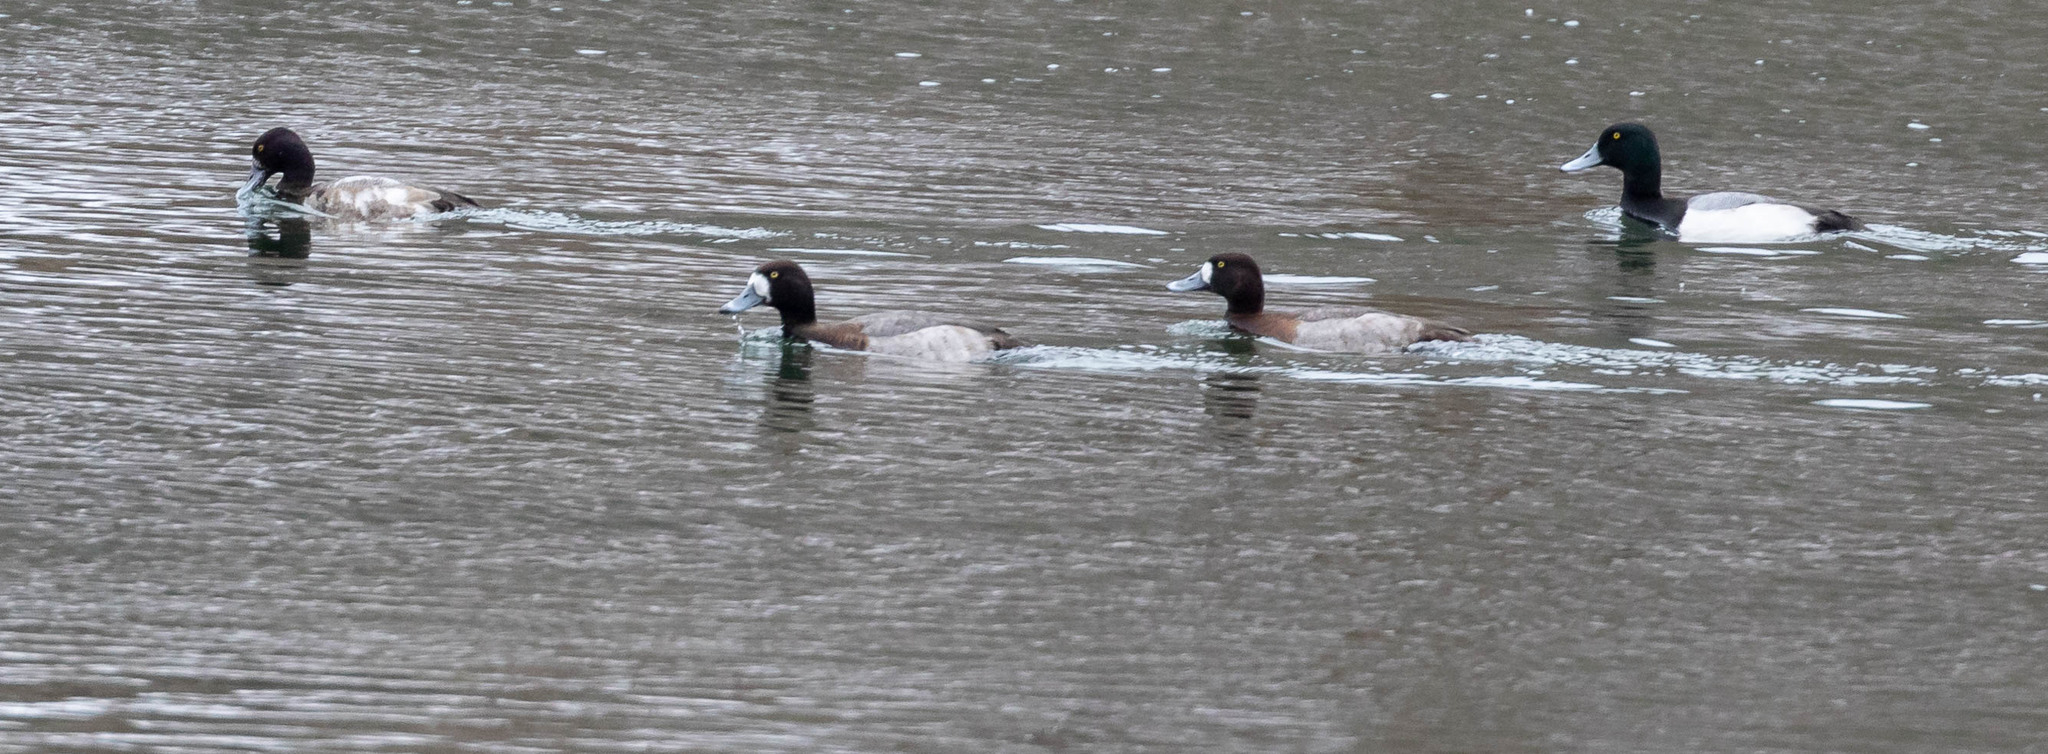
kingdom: Animalia
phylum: Chordata
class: Aves
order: Anseriformes
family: Anatidae
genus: Aythya
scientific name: Aythya marila
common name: Greater scaup
